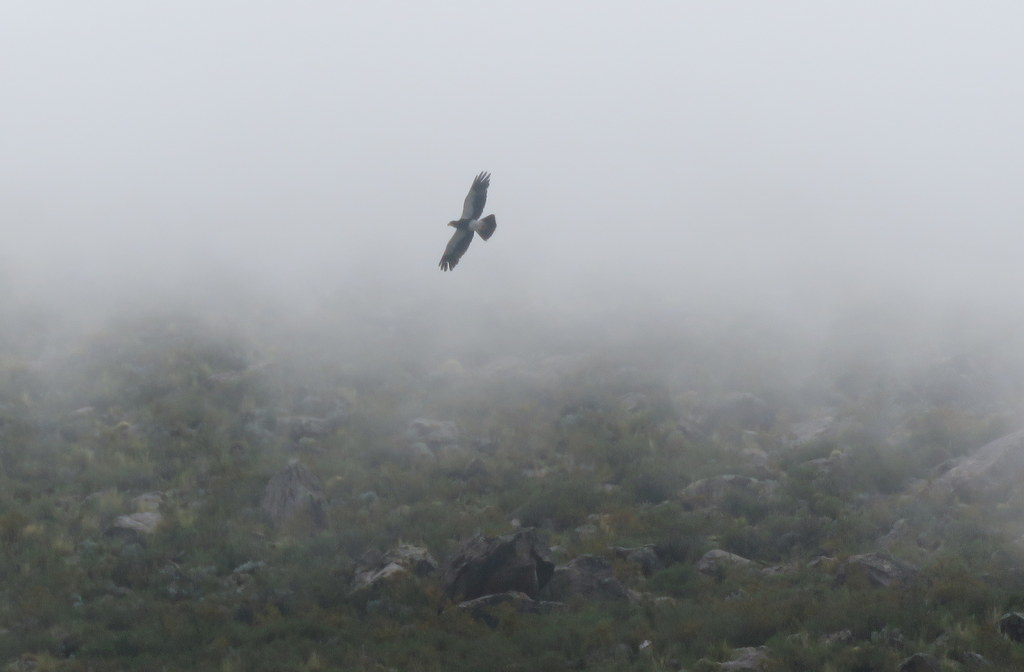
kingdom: Animalia
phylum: Chordata
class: Aves
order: Falconiformes
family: Falconidae
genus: Daptrius
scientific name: Daptrius
